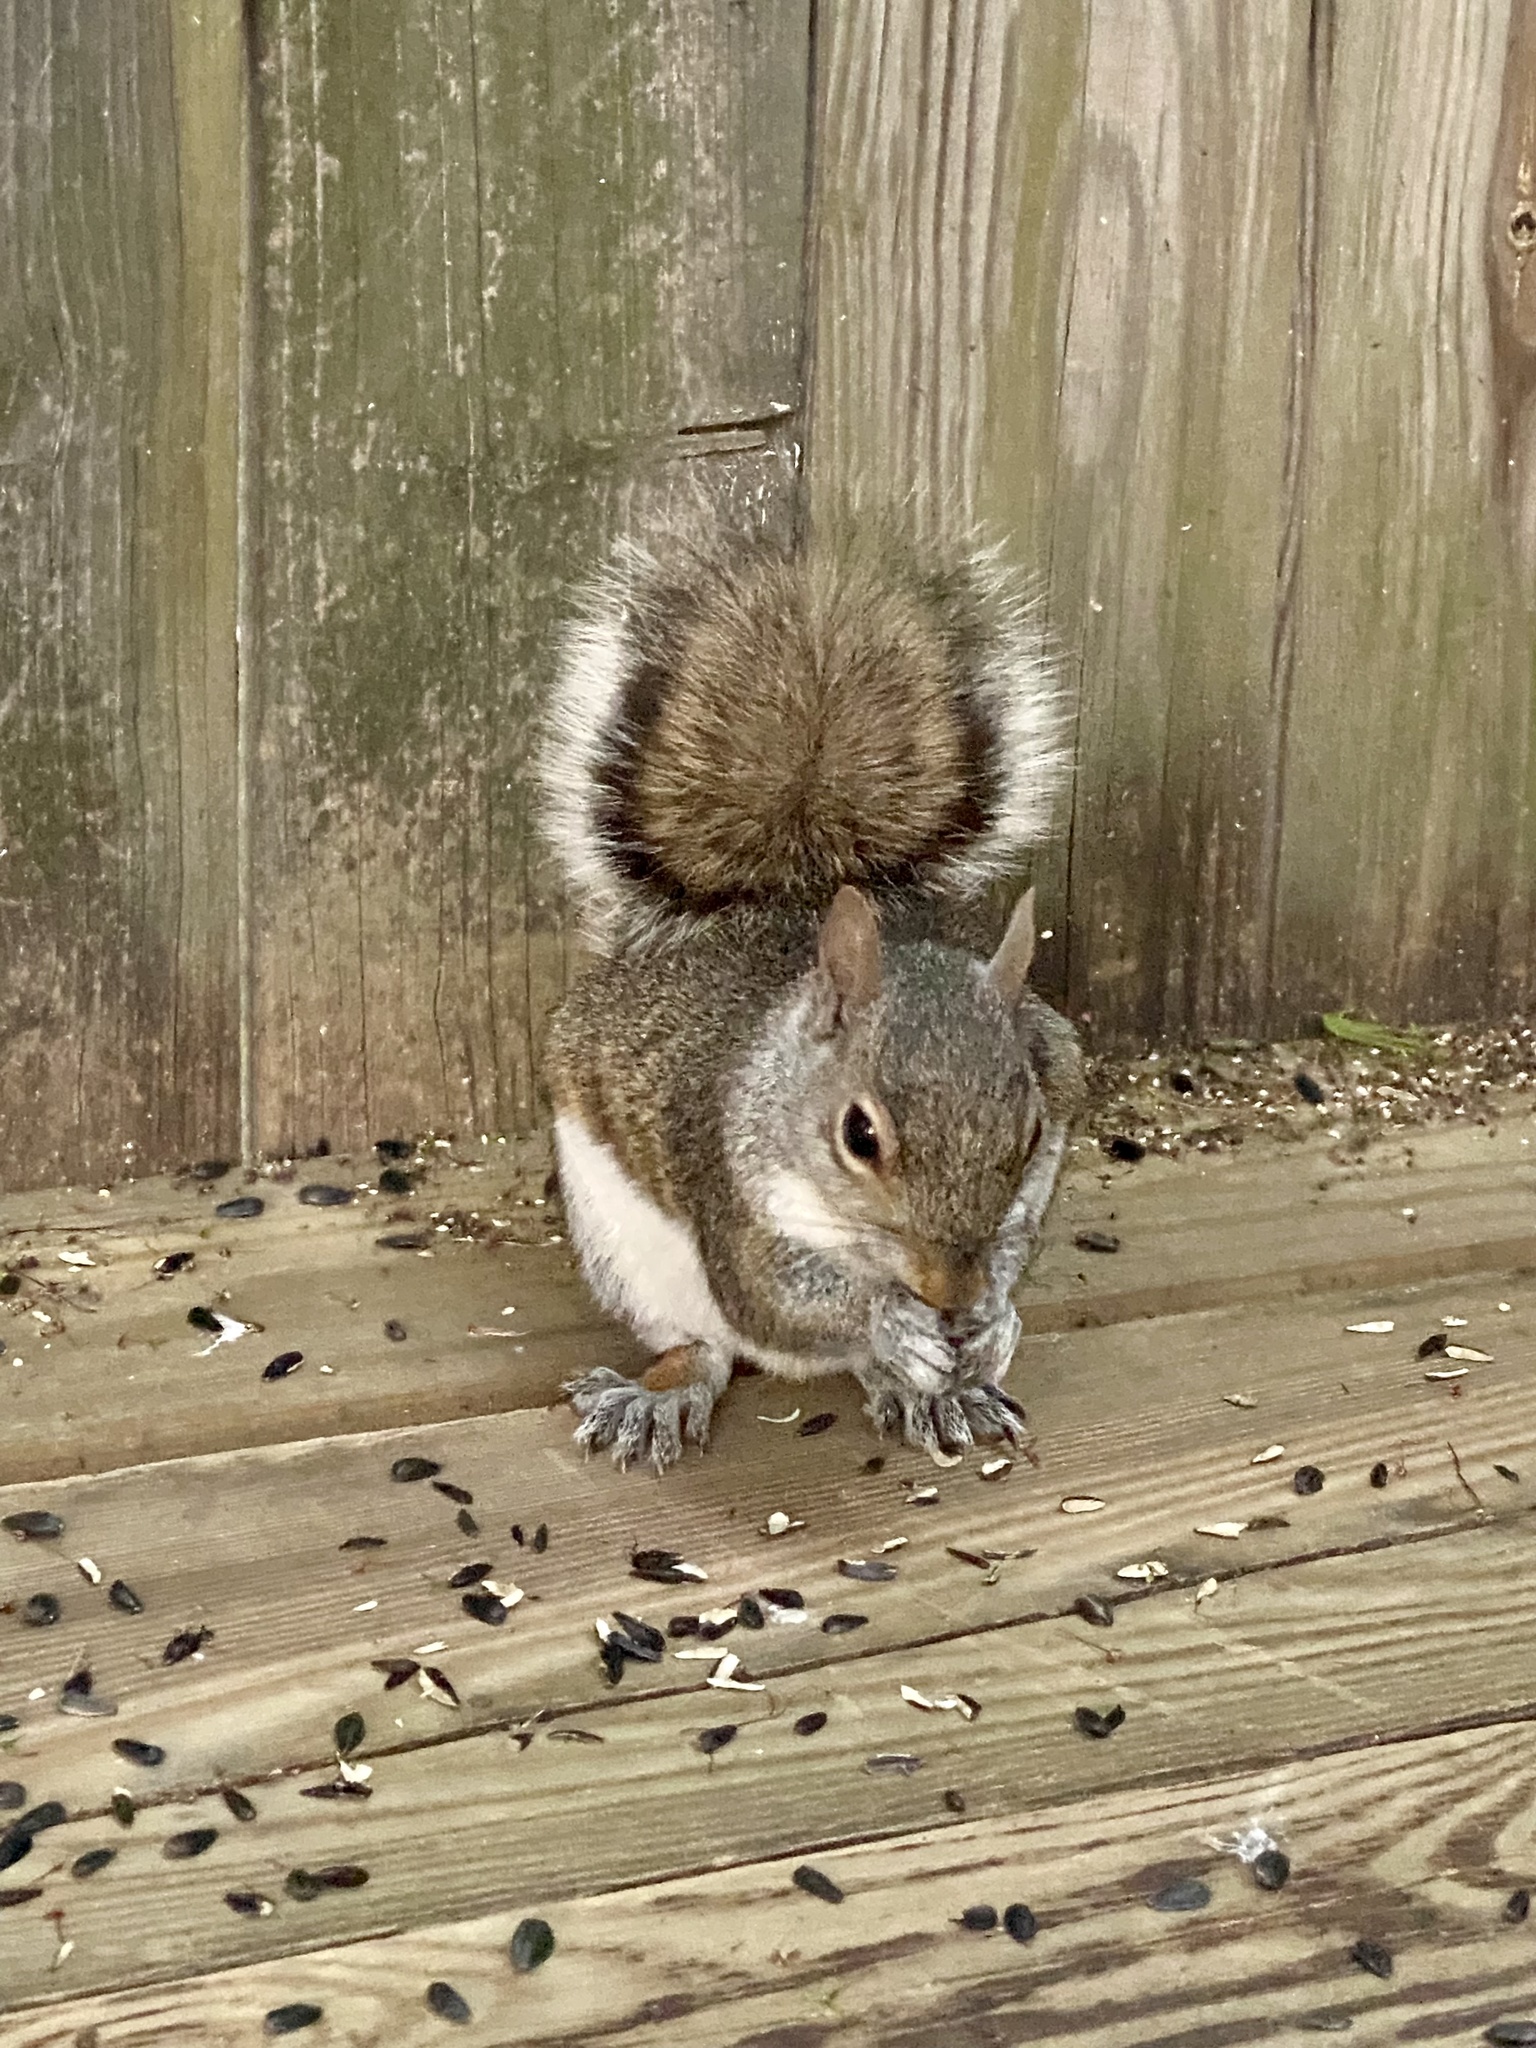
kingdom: Animalia
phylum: Chordata
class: Mammalia
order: Rodentia
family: Sciuridae
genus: Sciurus
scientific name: Sciurus carolinensis
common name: Eastern gray squirrel
